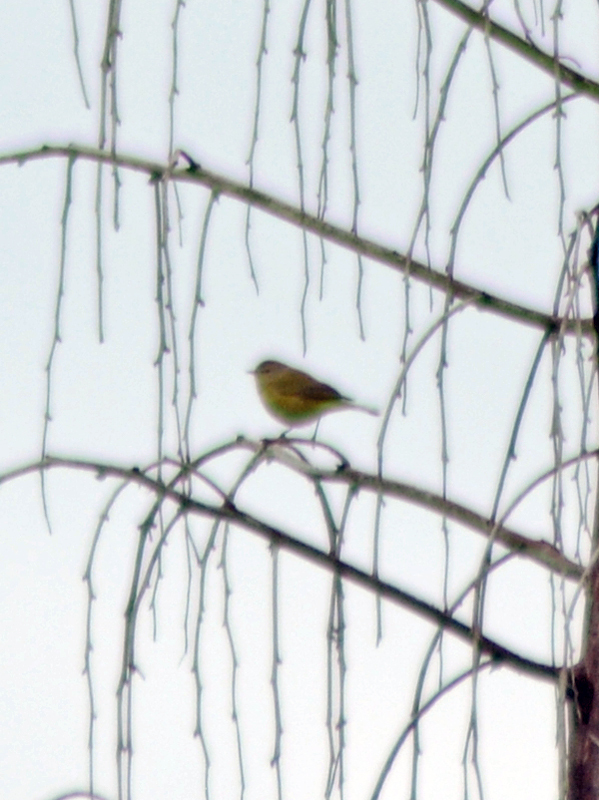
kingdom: Animalia
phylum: Chordata
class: Aves
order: Passeriformes
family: Parulidae
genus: Cardellina
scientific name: Cardellina pusilla
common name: Wilson's warbler
